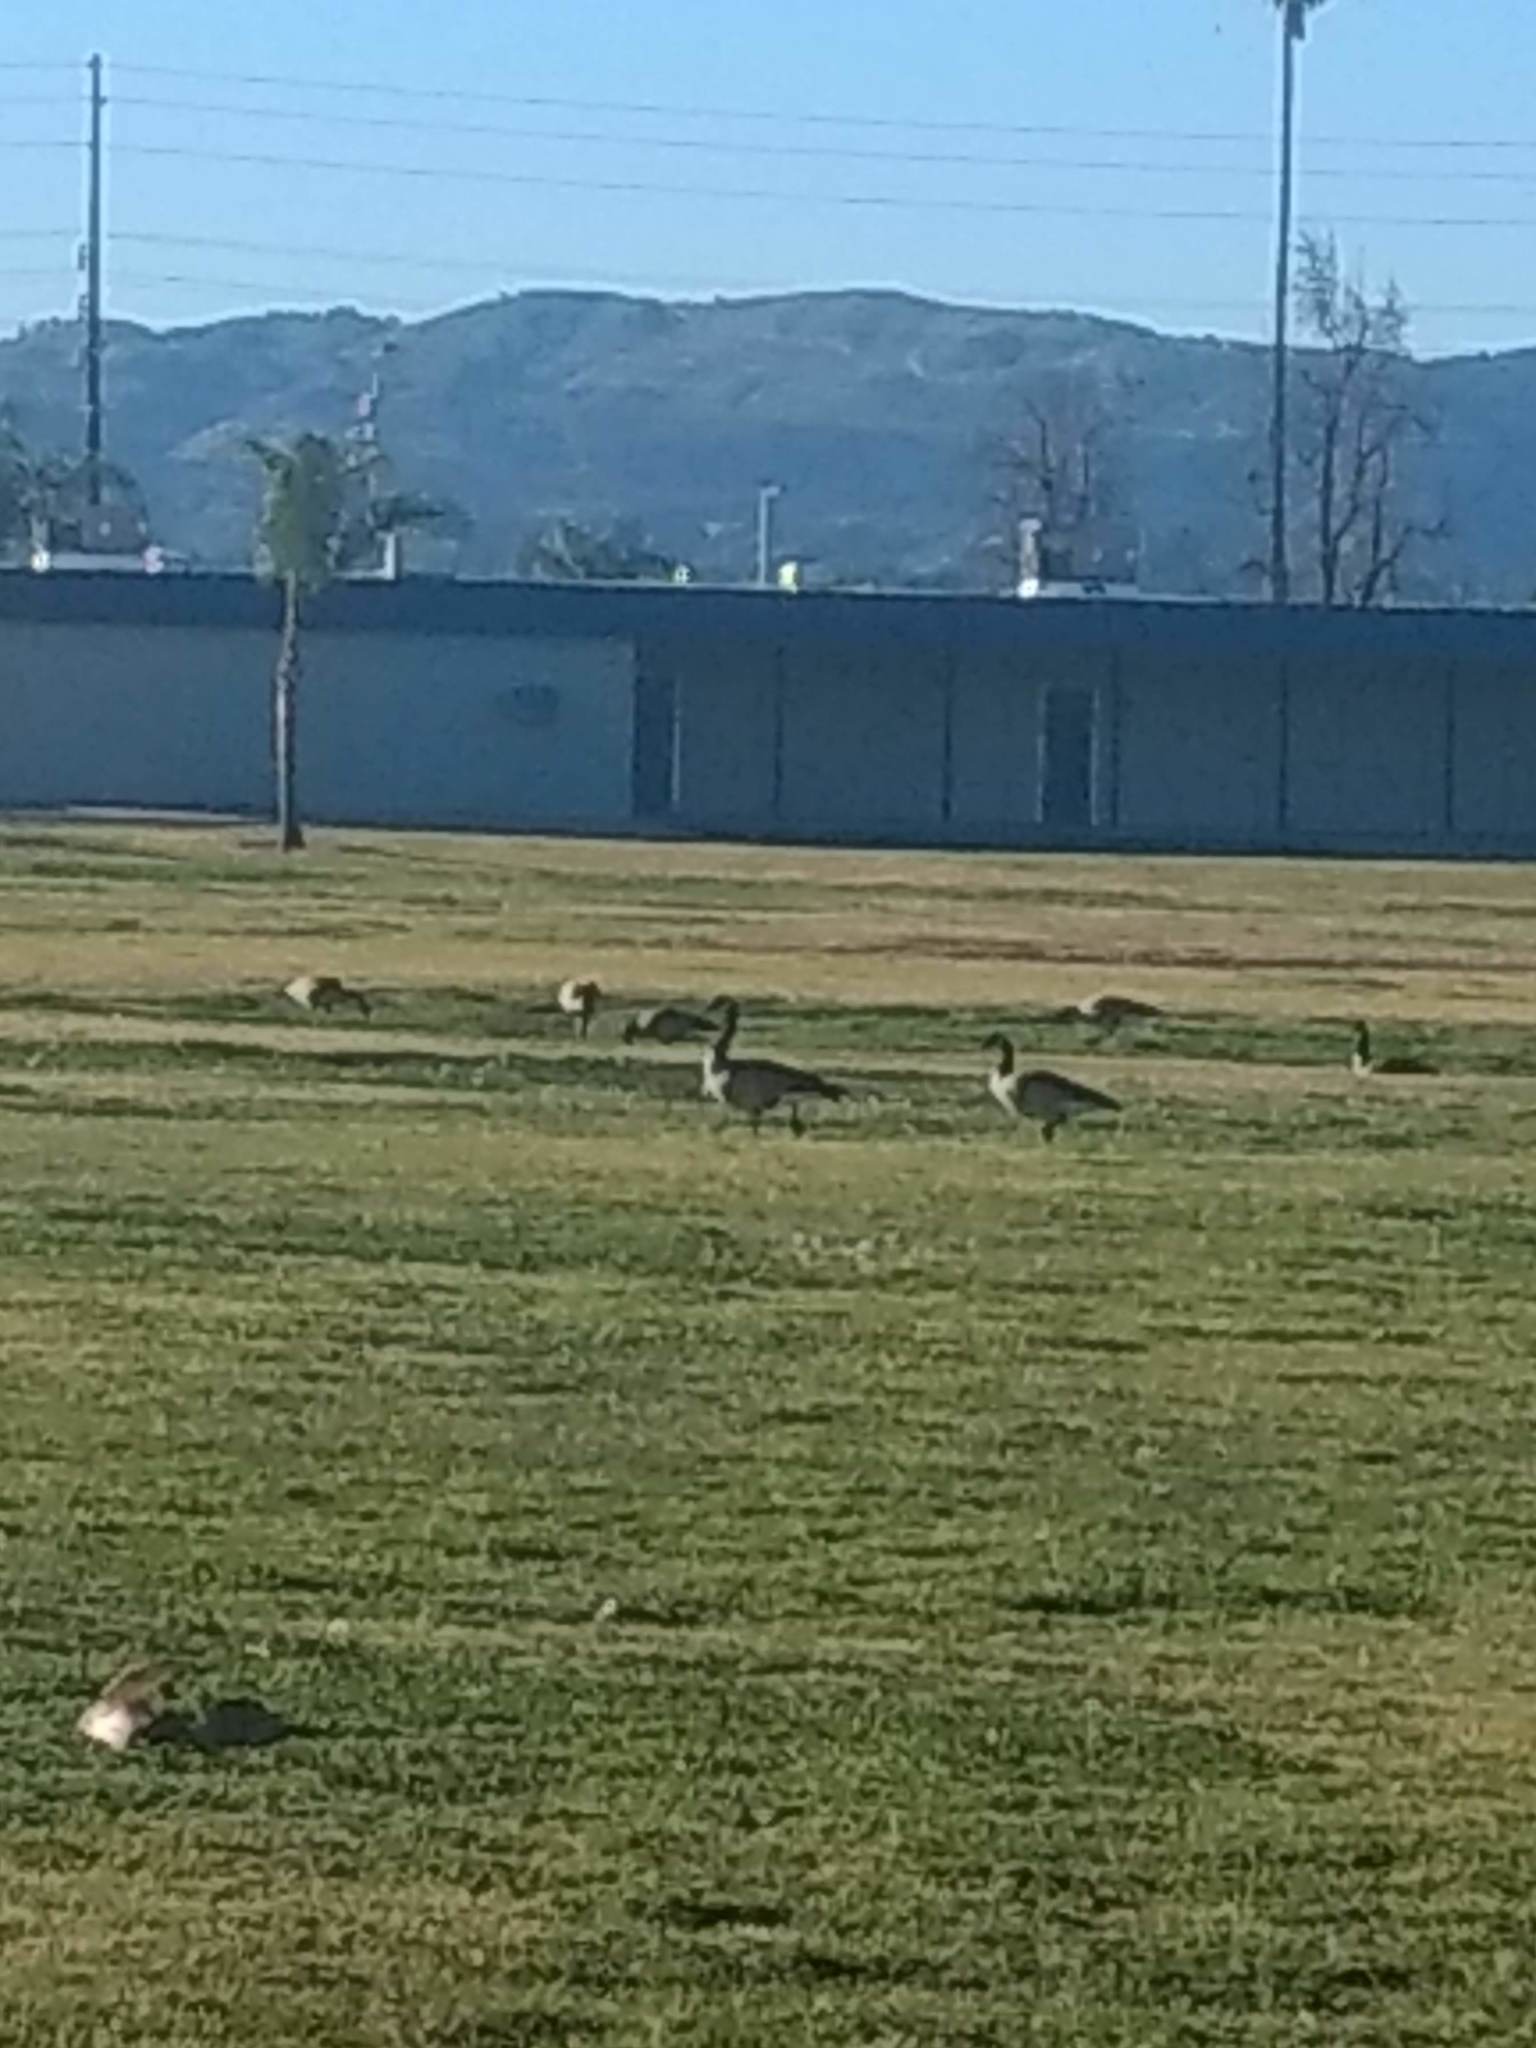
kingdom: Animalia
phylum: Chordata
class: Aves
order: Anseriformes
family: Anatidae
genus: Branta
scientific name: Branta canadensis
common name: Canada goose
